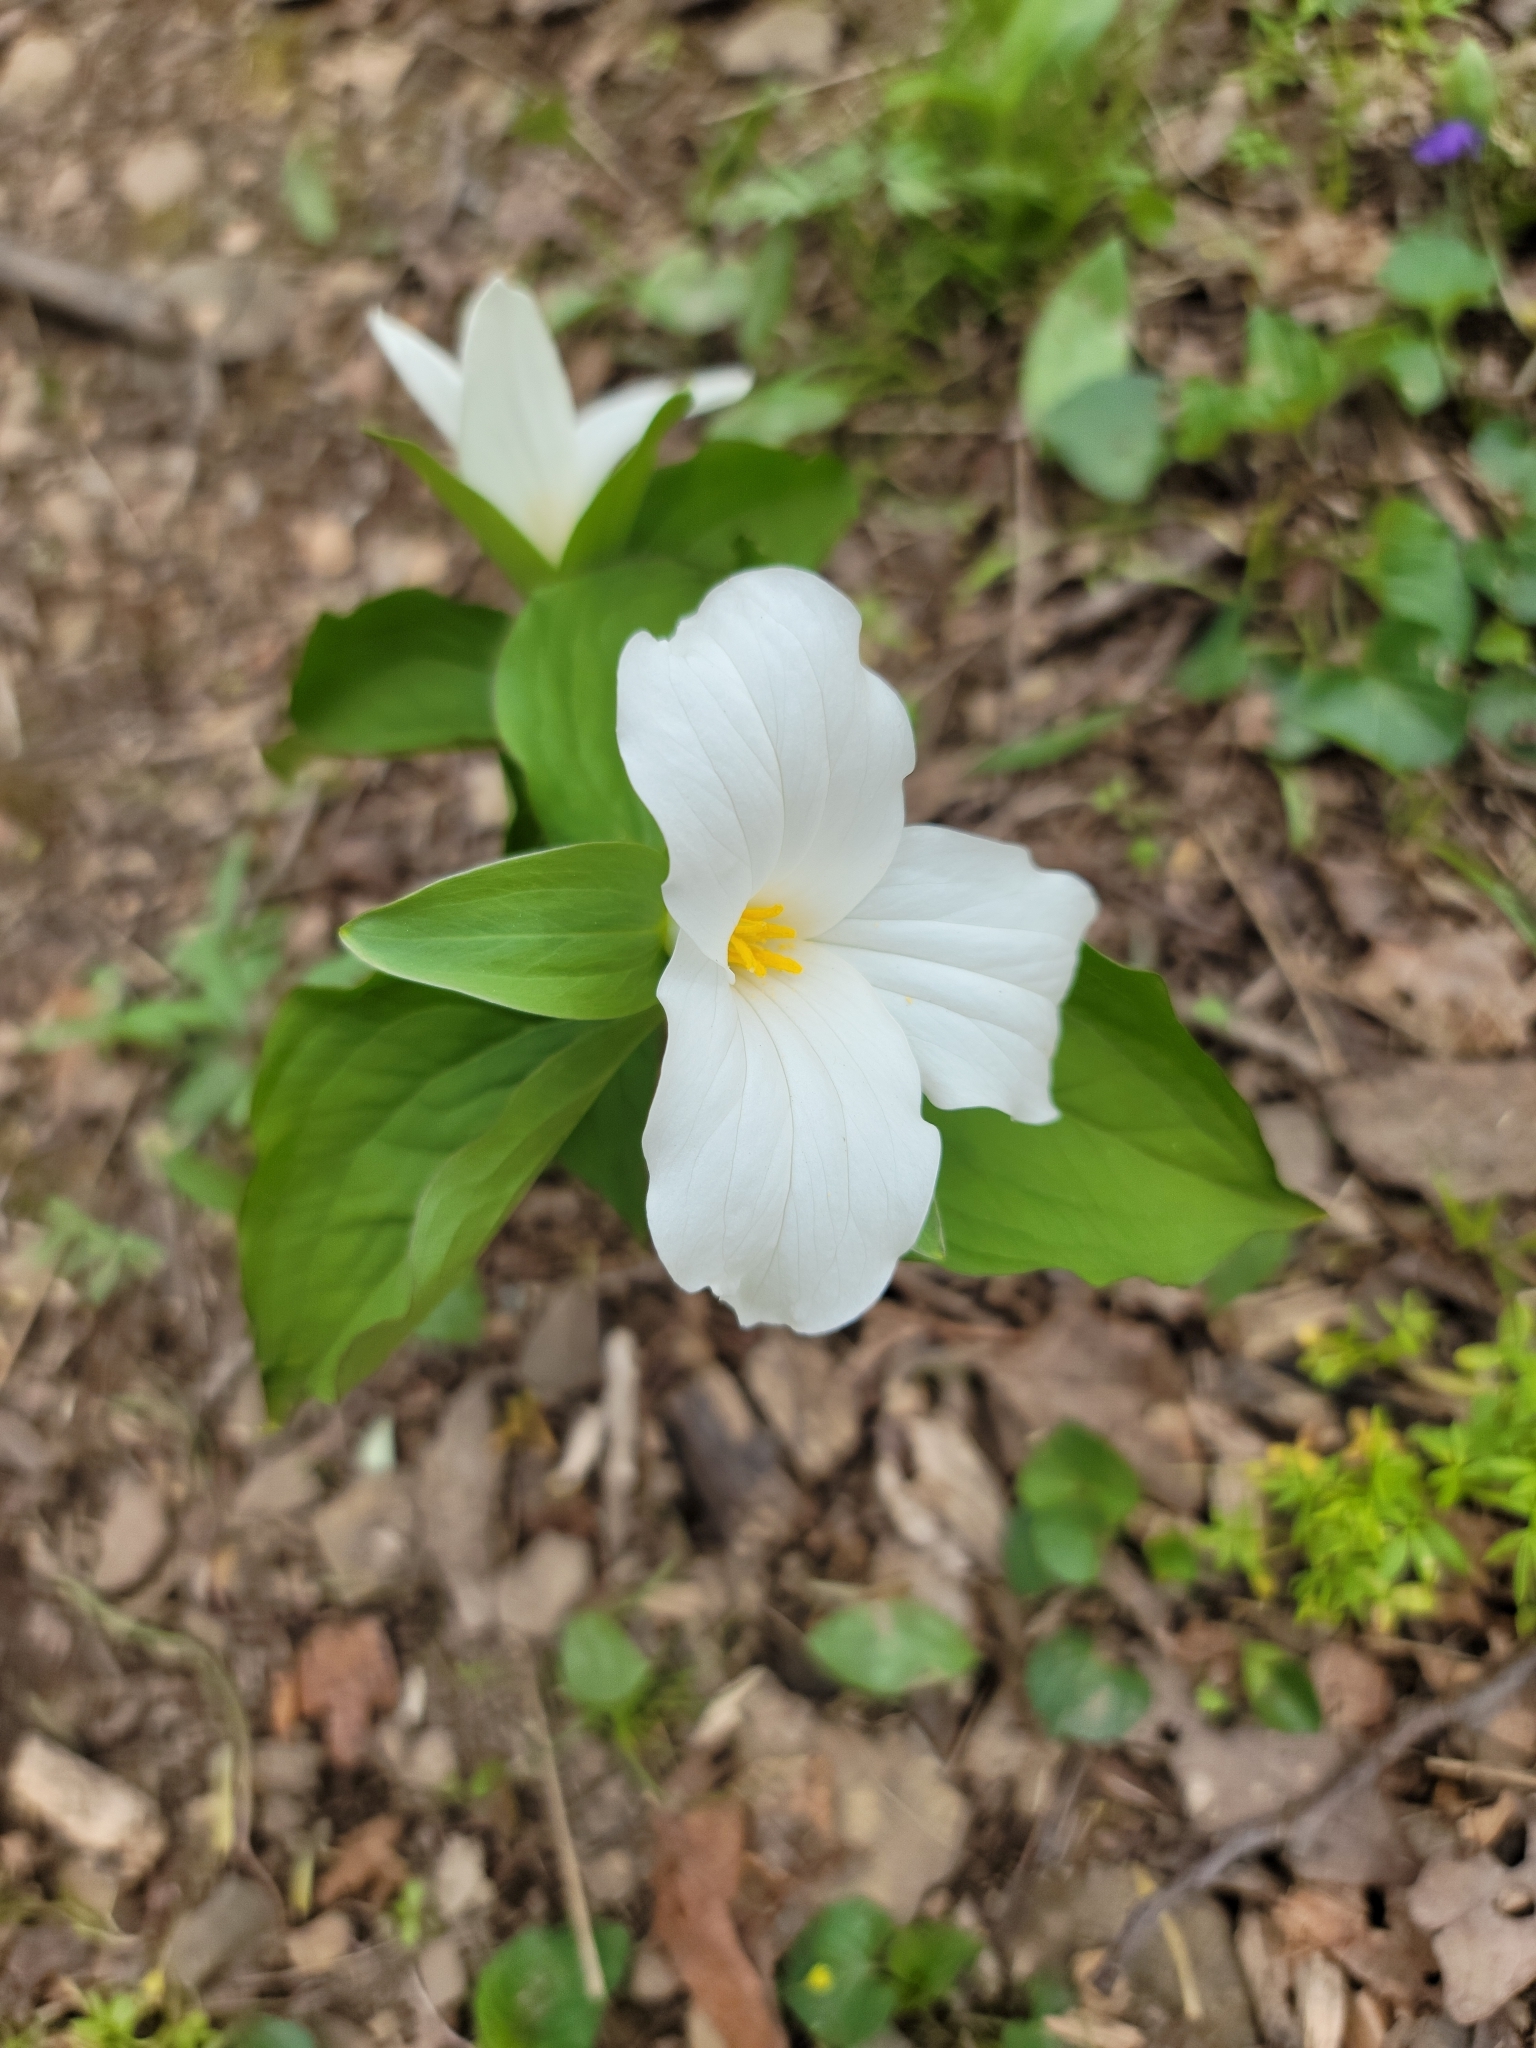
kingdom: Plantae
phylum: Tracheophyta
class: Liliopsida
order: Liliales
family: Melanthiaceae
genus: Trillium
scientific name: Trillium grandiflorum
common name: Great white trillium
